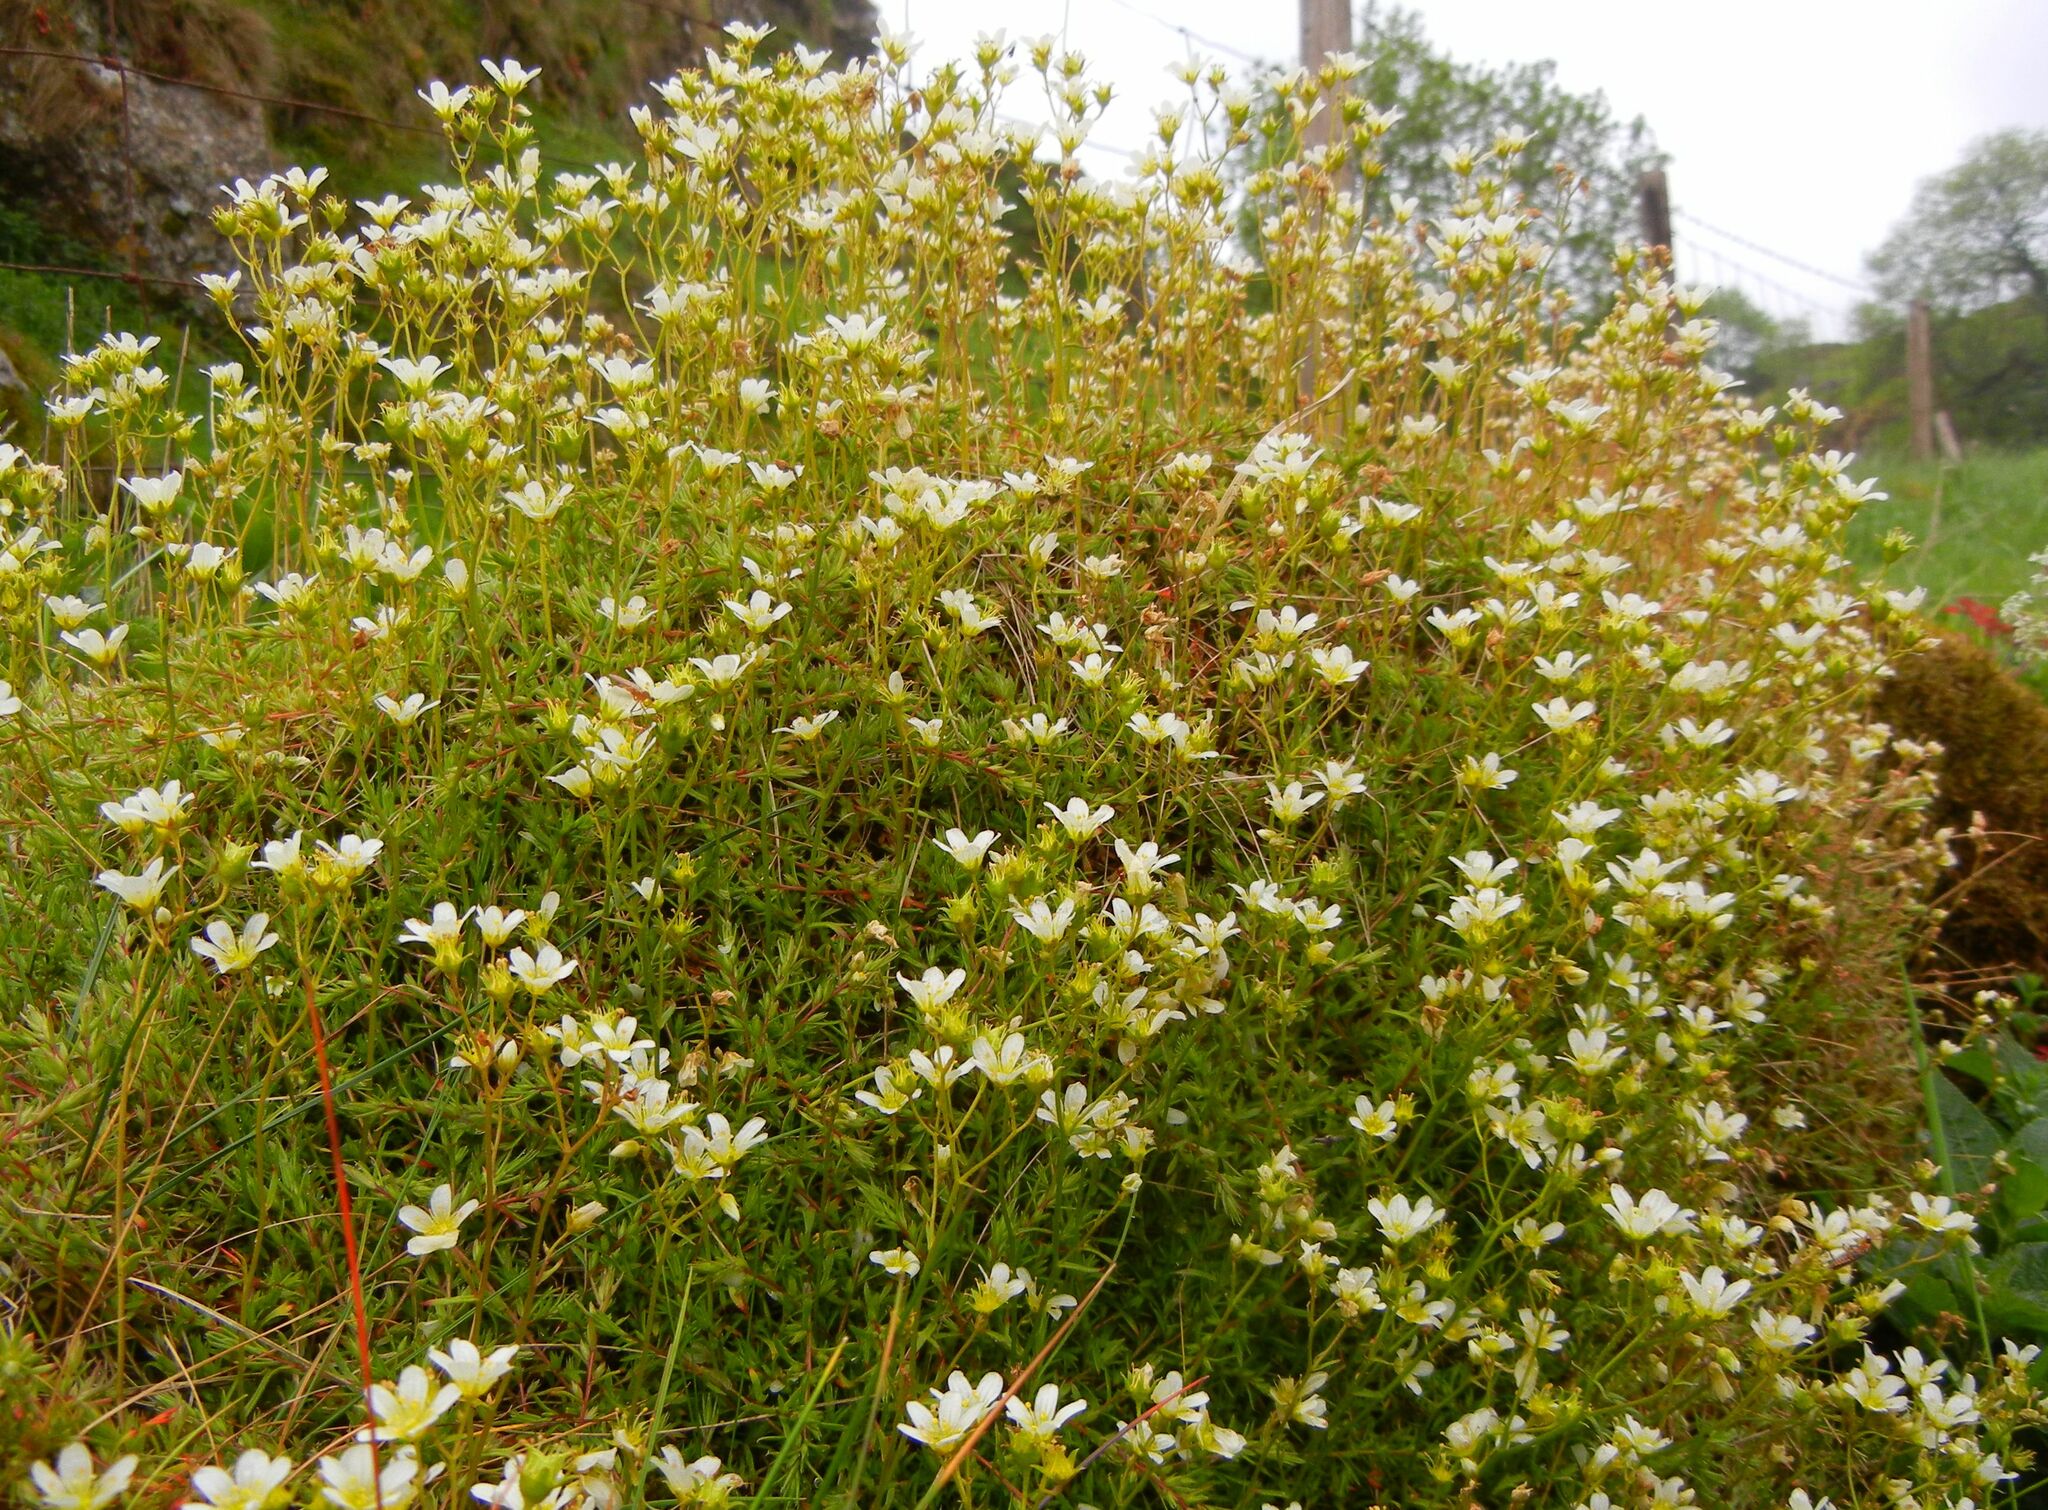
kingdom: Plantae
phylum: Tracheophyta
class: Magnoliopsida
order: Saxifragales
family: Saxifragaceae
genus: Saxifraga
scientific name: Saxifraga hypnoides
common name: Mossy saxifrage
